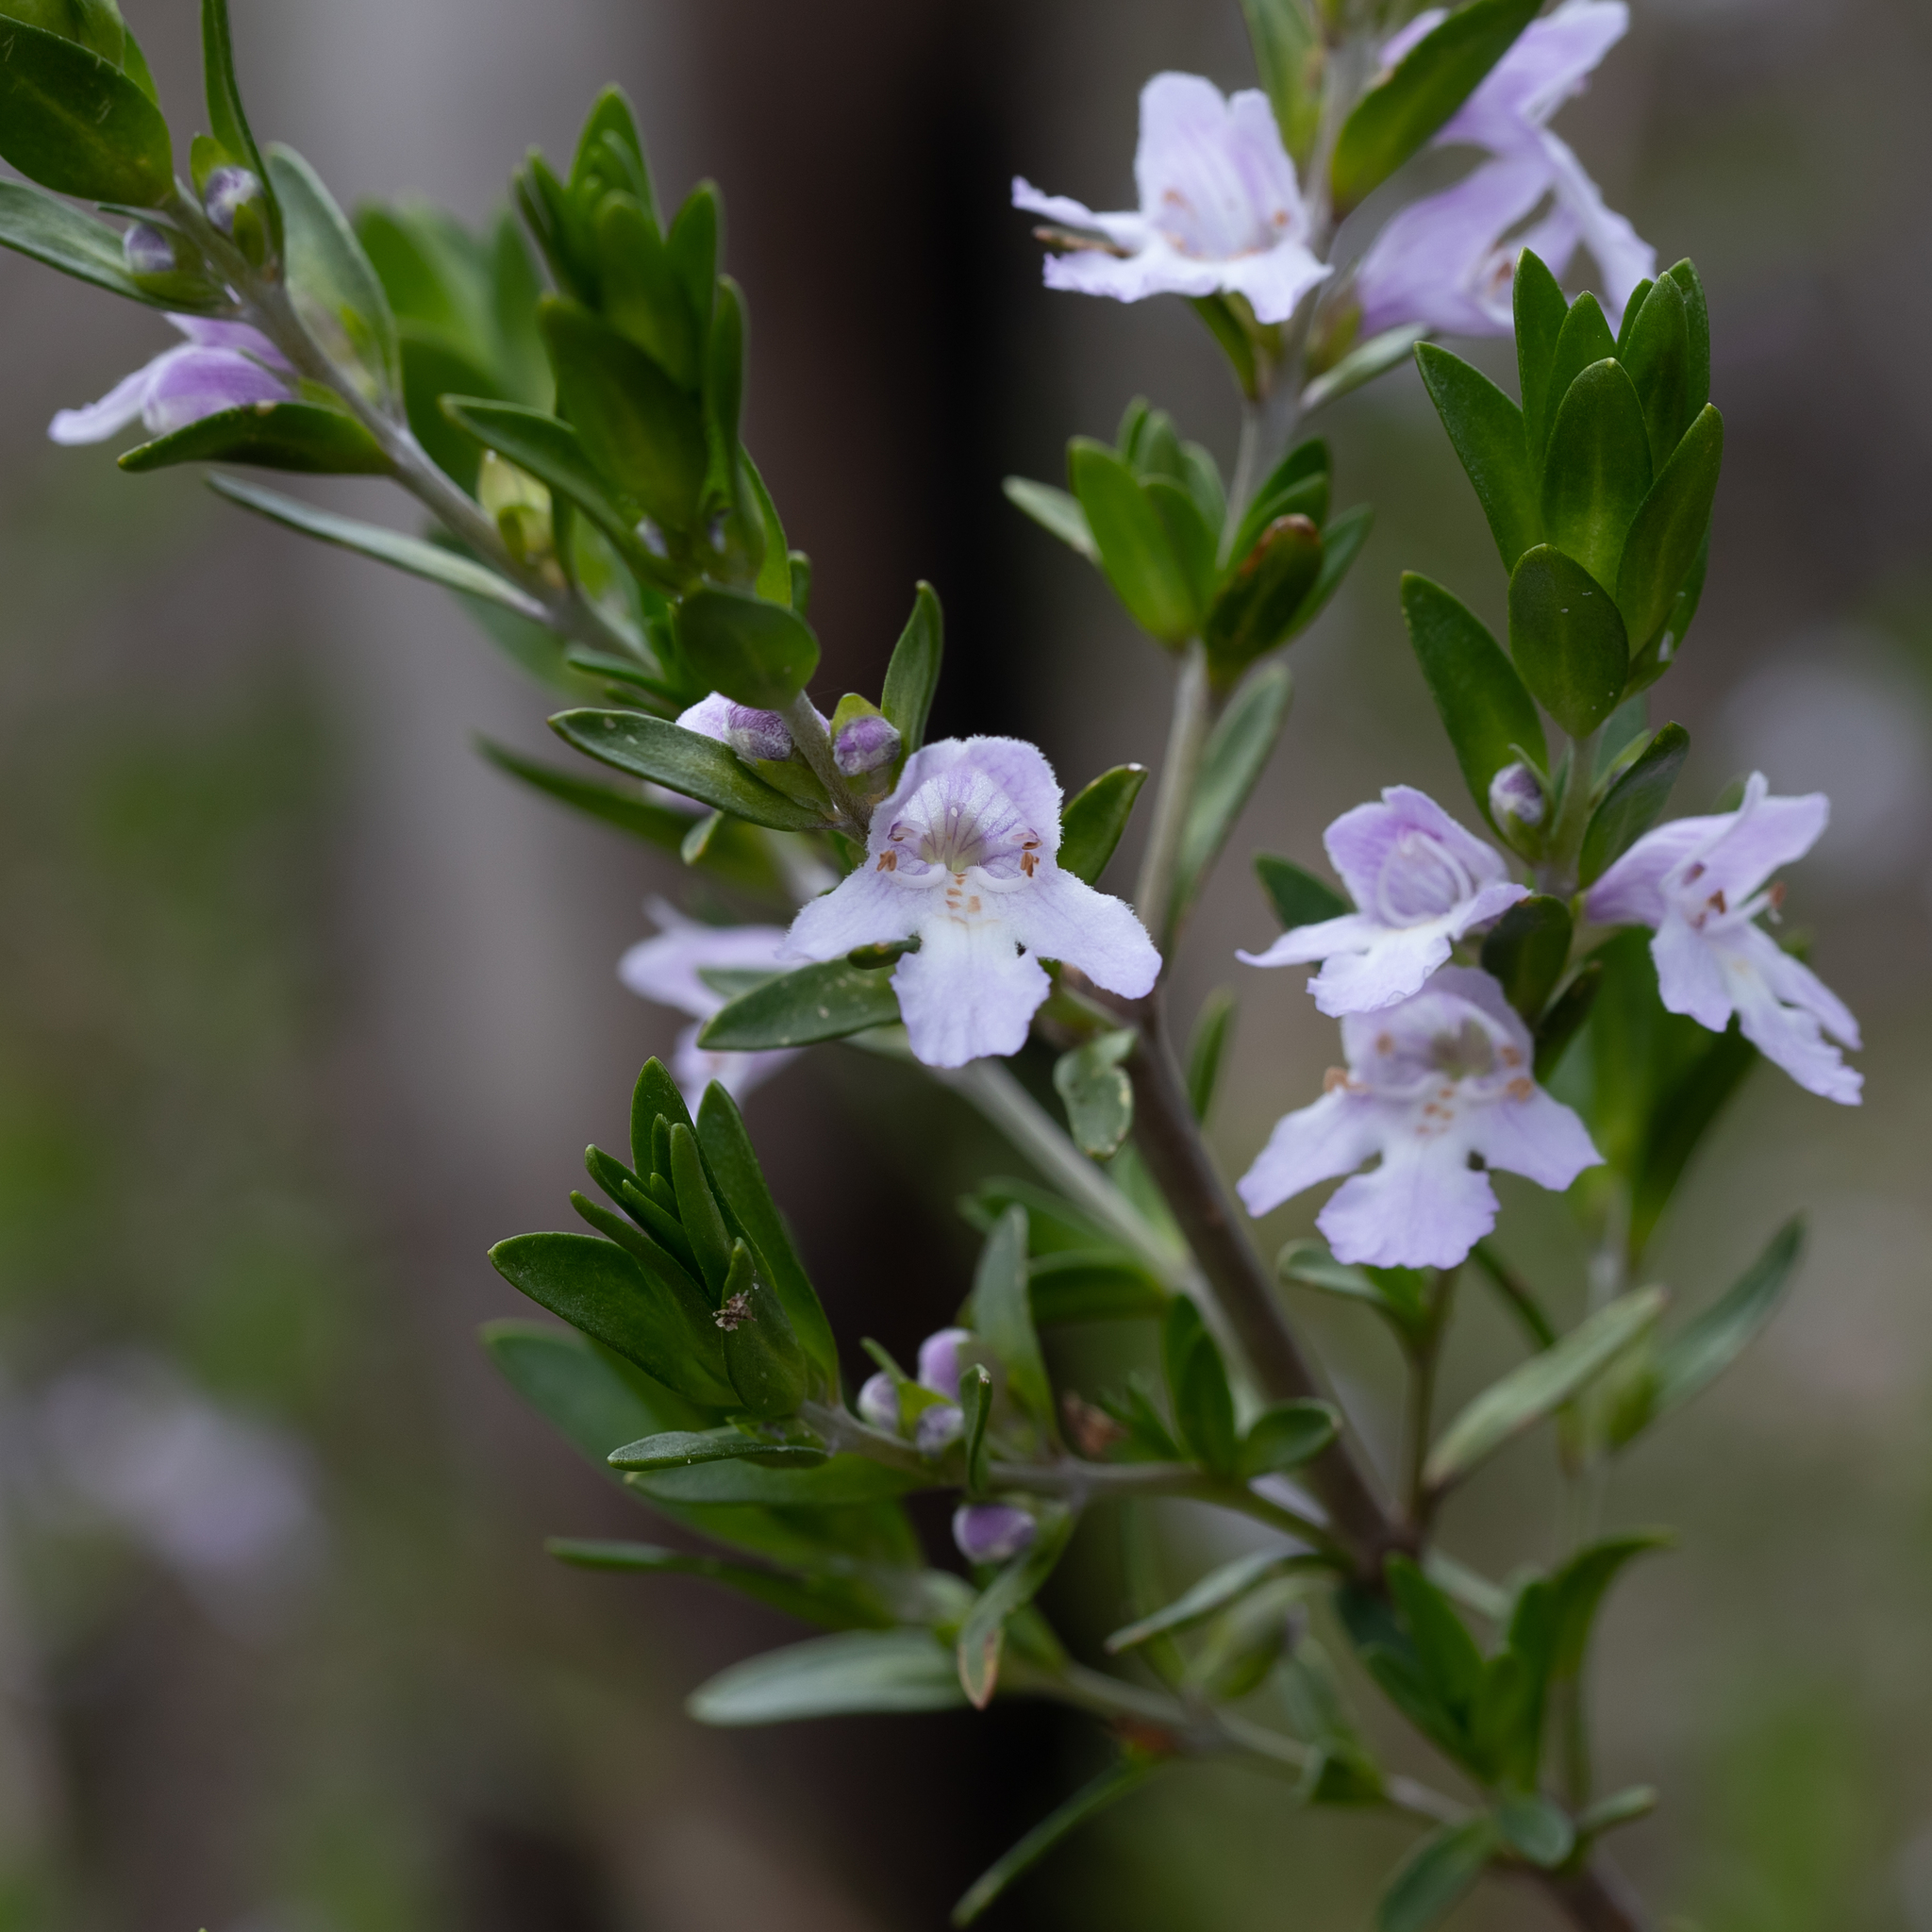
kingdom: Plantae
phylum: Tracheophyta
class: Magnoliopsida
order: Lamiales
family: Lamiaceae
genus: Prostanthera
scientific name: Prostanthera behriana
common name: Downy mintbush
